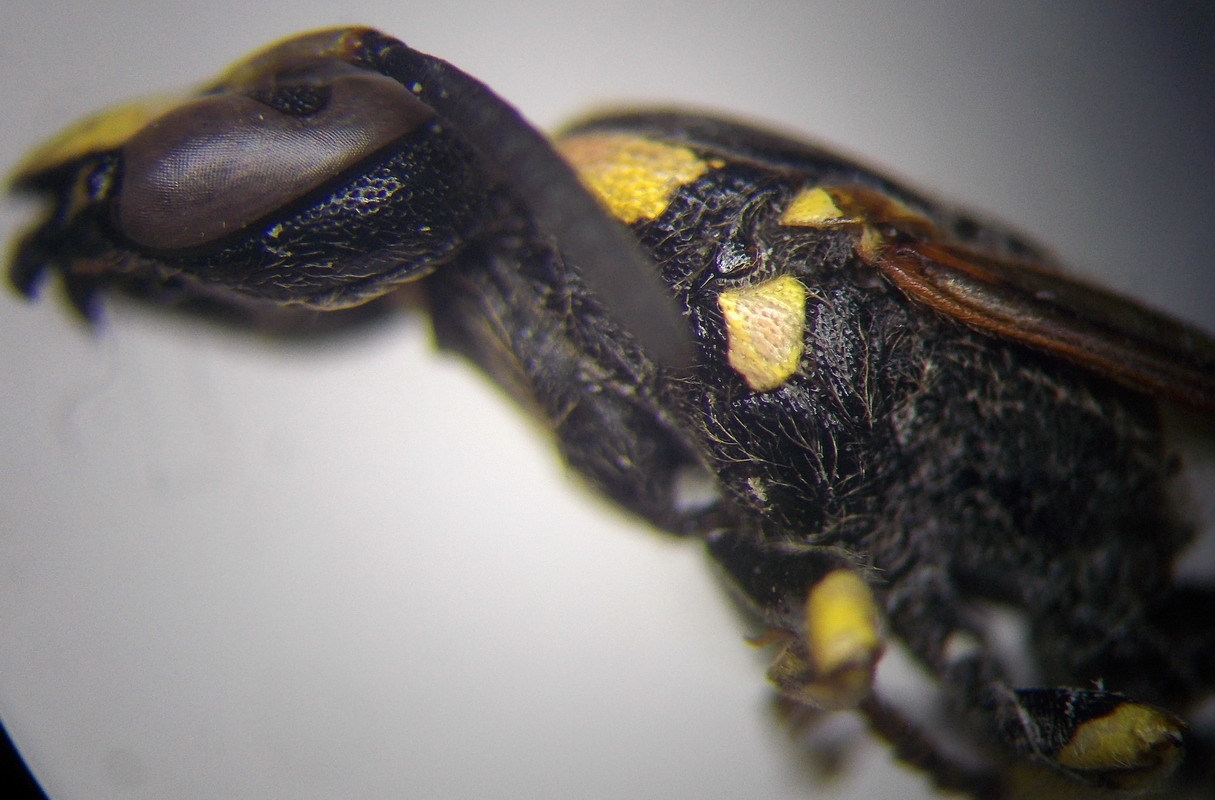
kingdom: Animalia
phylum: Arthropoda
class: Insecta
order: Hymenoptera
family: Eumenidae
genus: Discoelius
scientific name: Discoelius pictus
